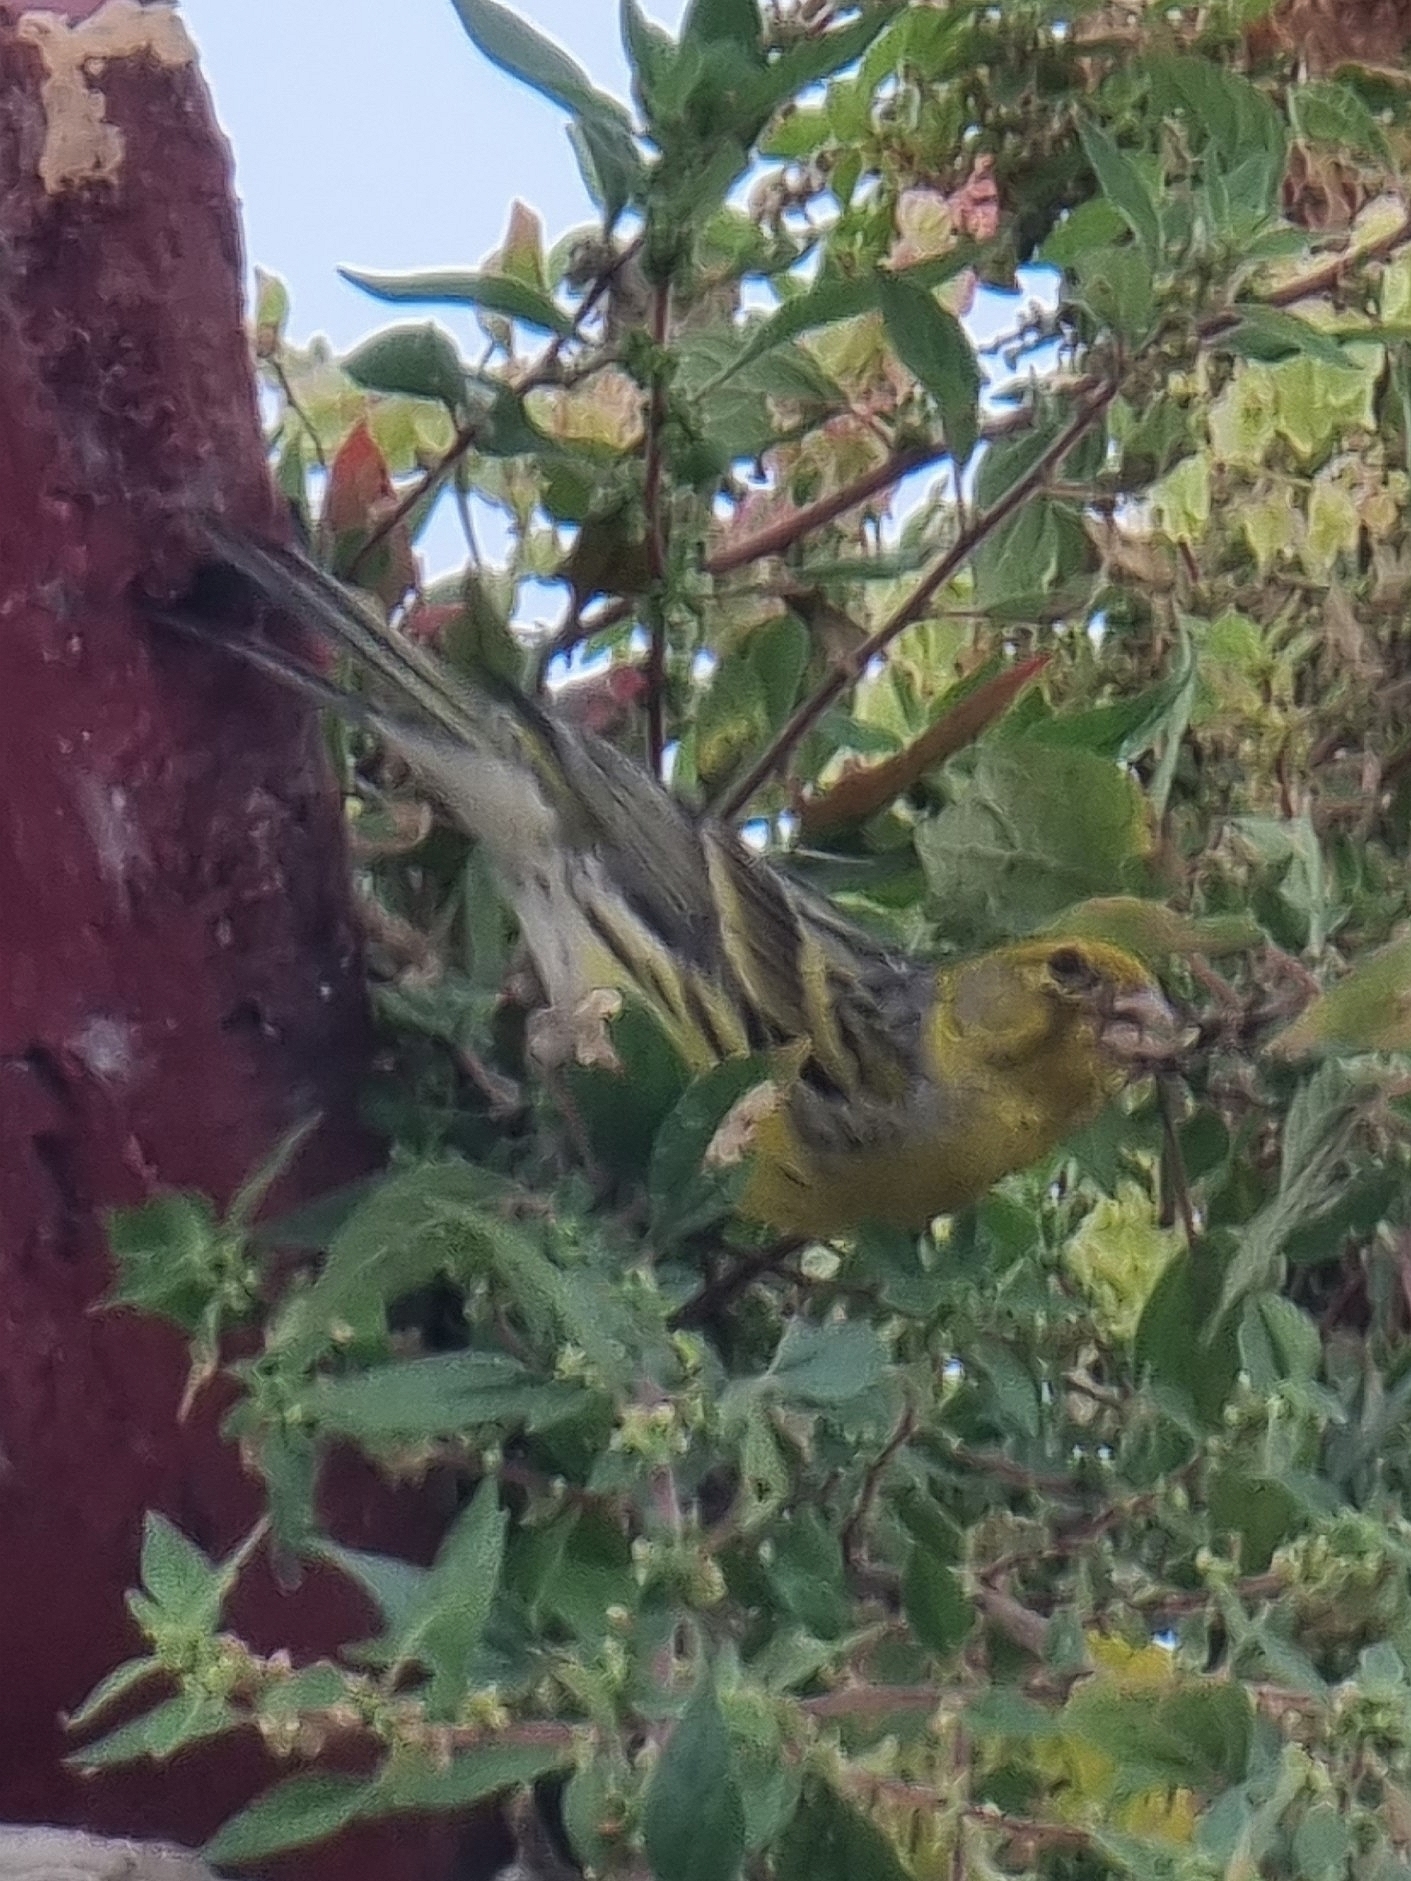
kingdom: Animalia
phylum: Chordata
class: Aves
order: Passeriformes
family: Fringillidae
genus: Serinus
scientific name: Serinus canaria
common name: Atlantic canary
